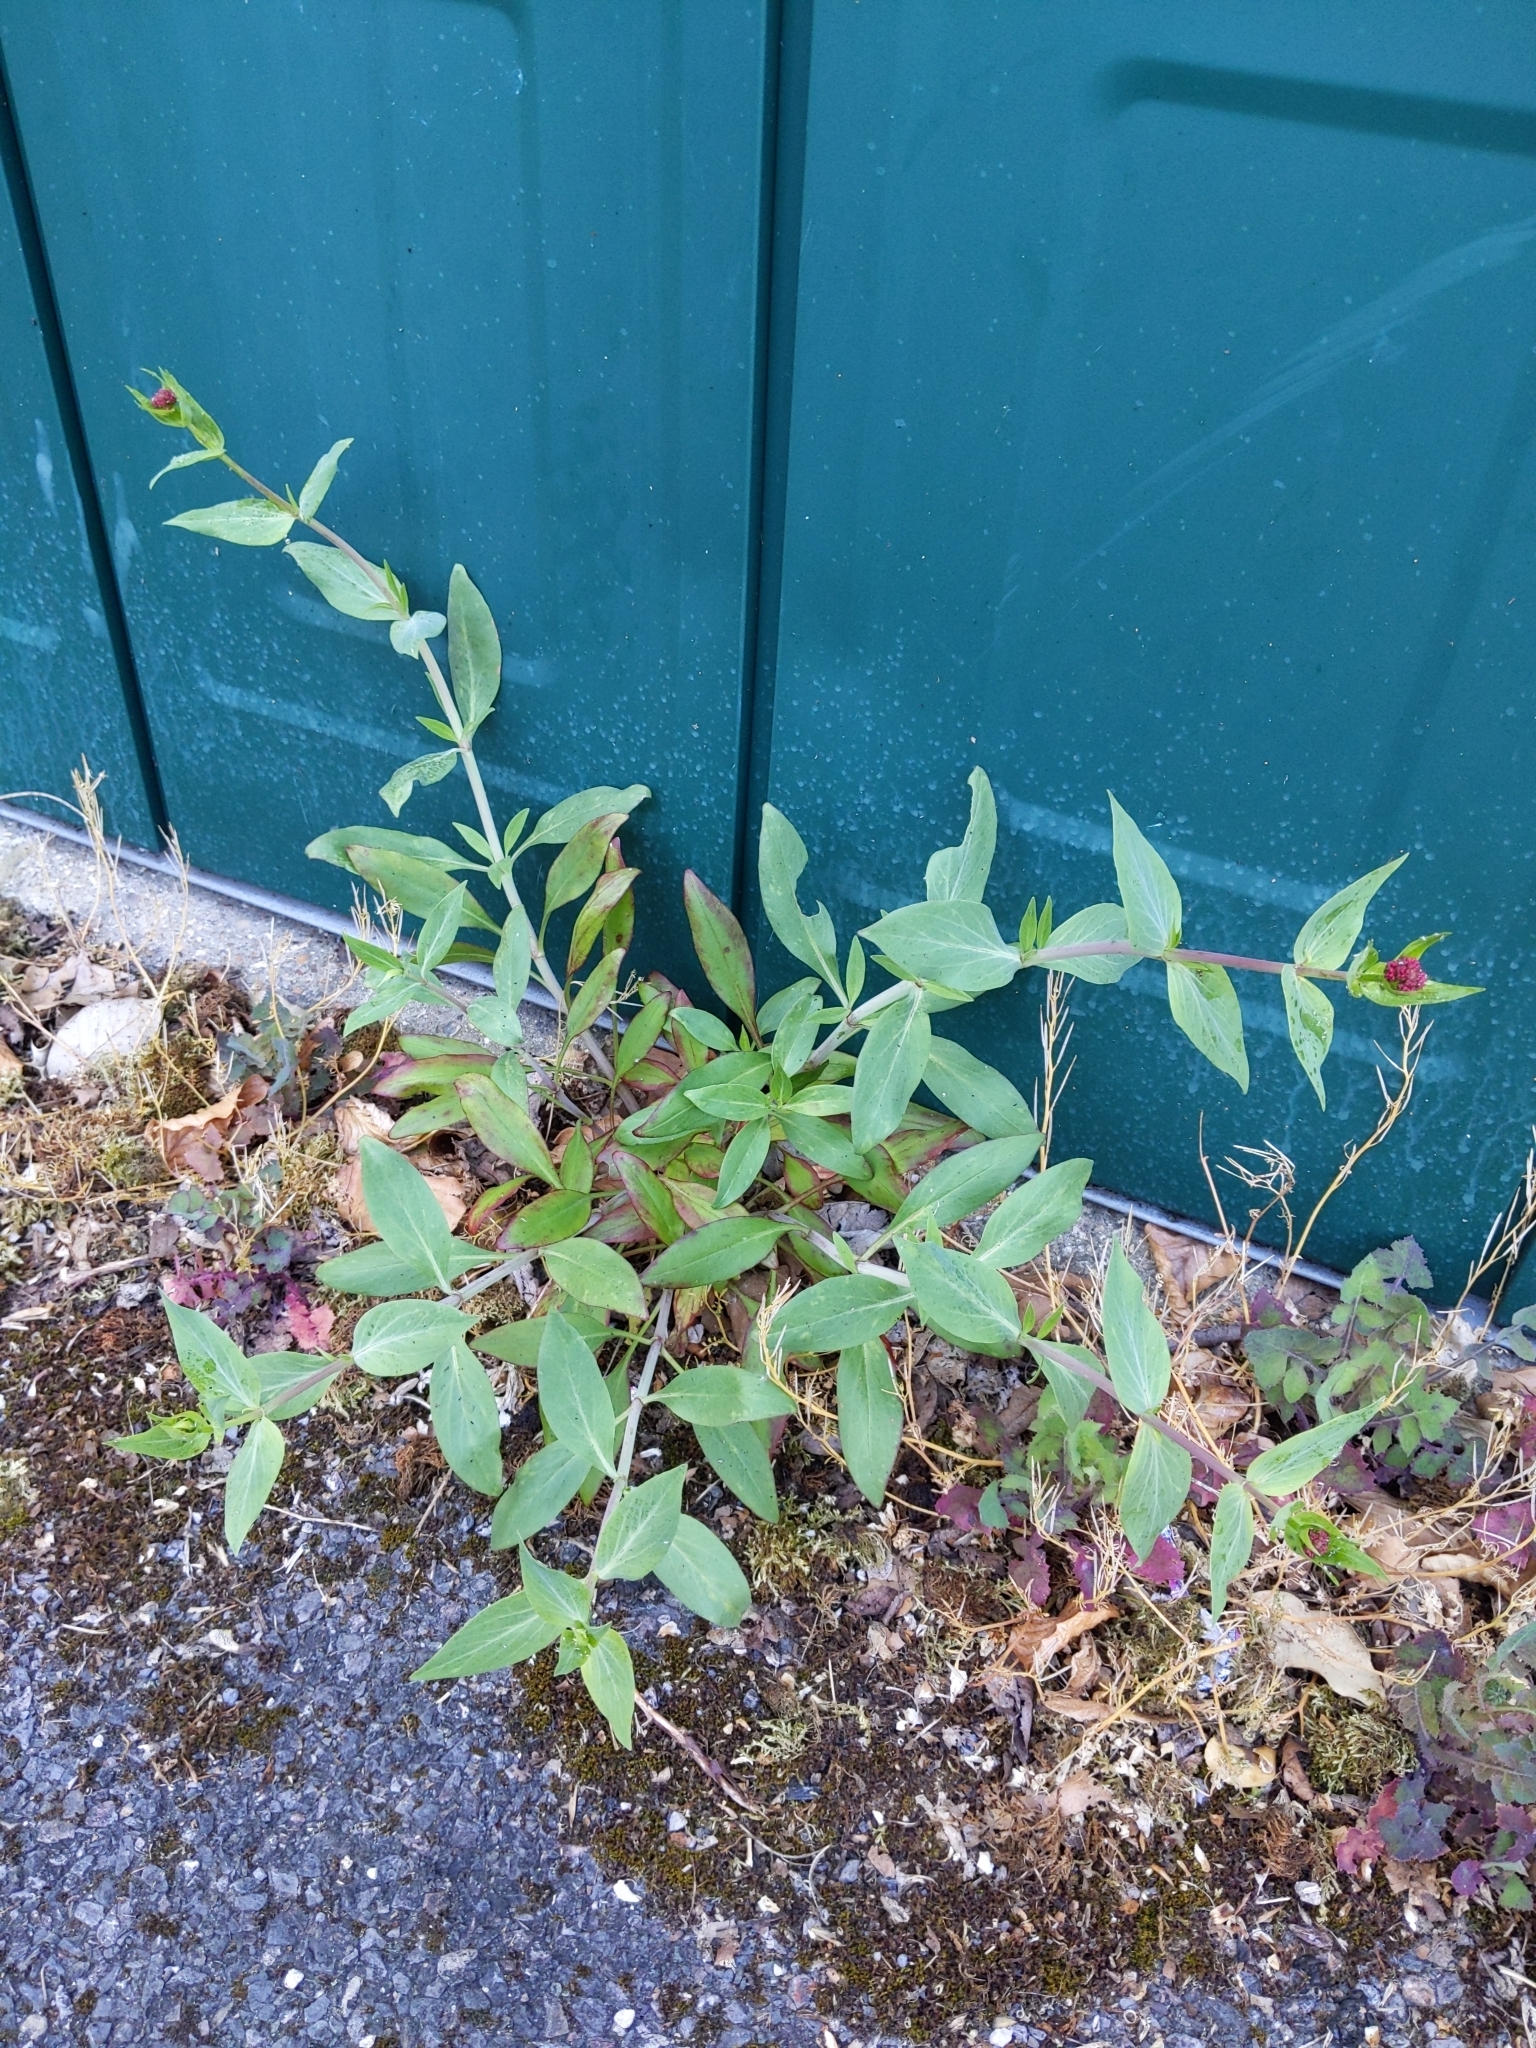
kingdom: Plantae
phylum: Tracheophyta
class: Magnoliopsida
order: Dipsacales
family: Caprifoliaceae
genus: Centranthus
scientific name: Centranthus ruber
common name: Red valerian
